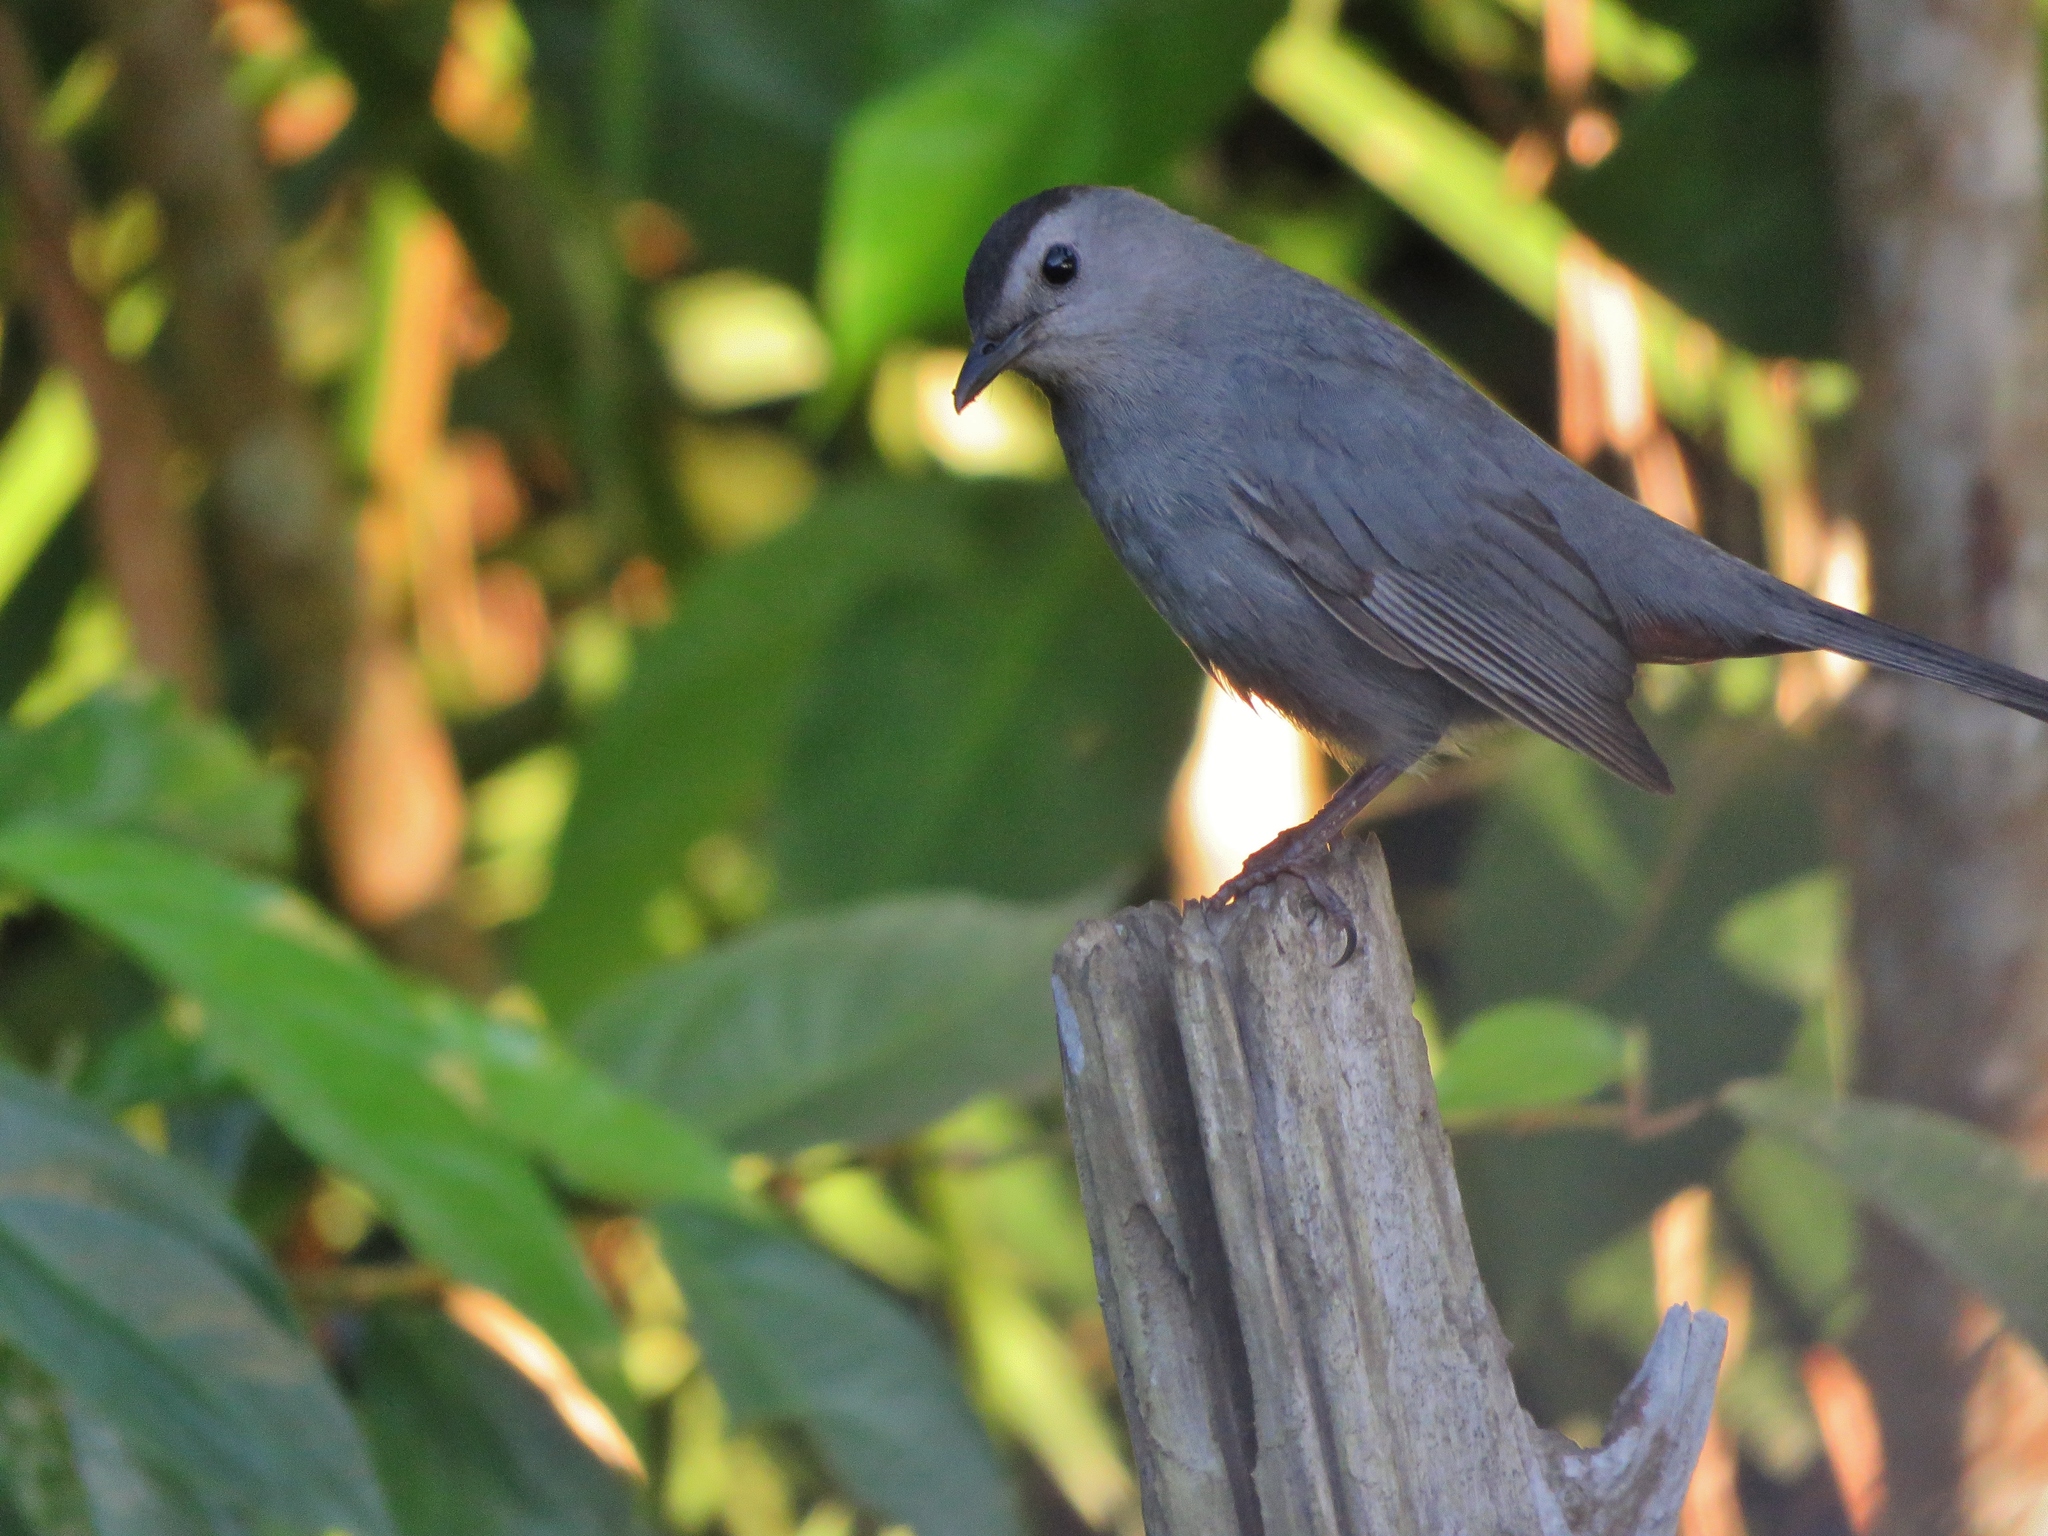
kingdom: Animalia
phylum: Chordata
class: Aves
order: Passeriformes
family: Mimidae
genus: Dumetella
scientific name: Dumetella carolinensis
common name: Gray catbird
